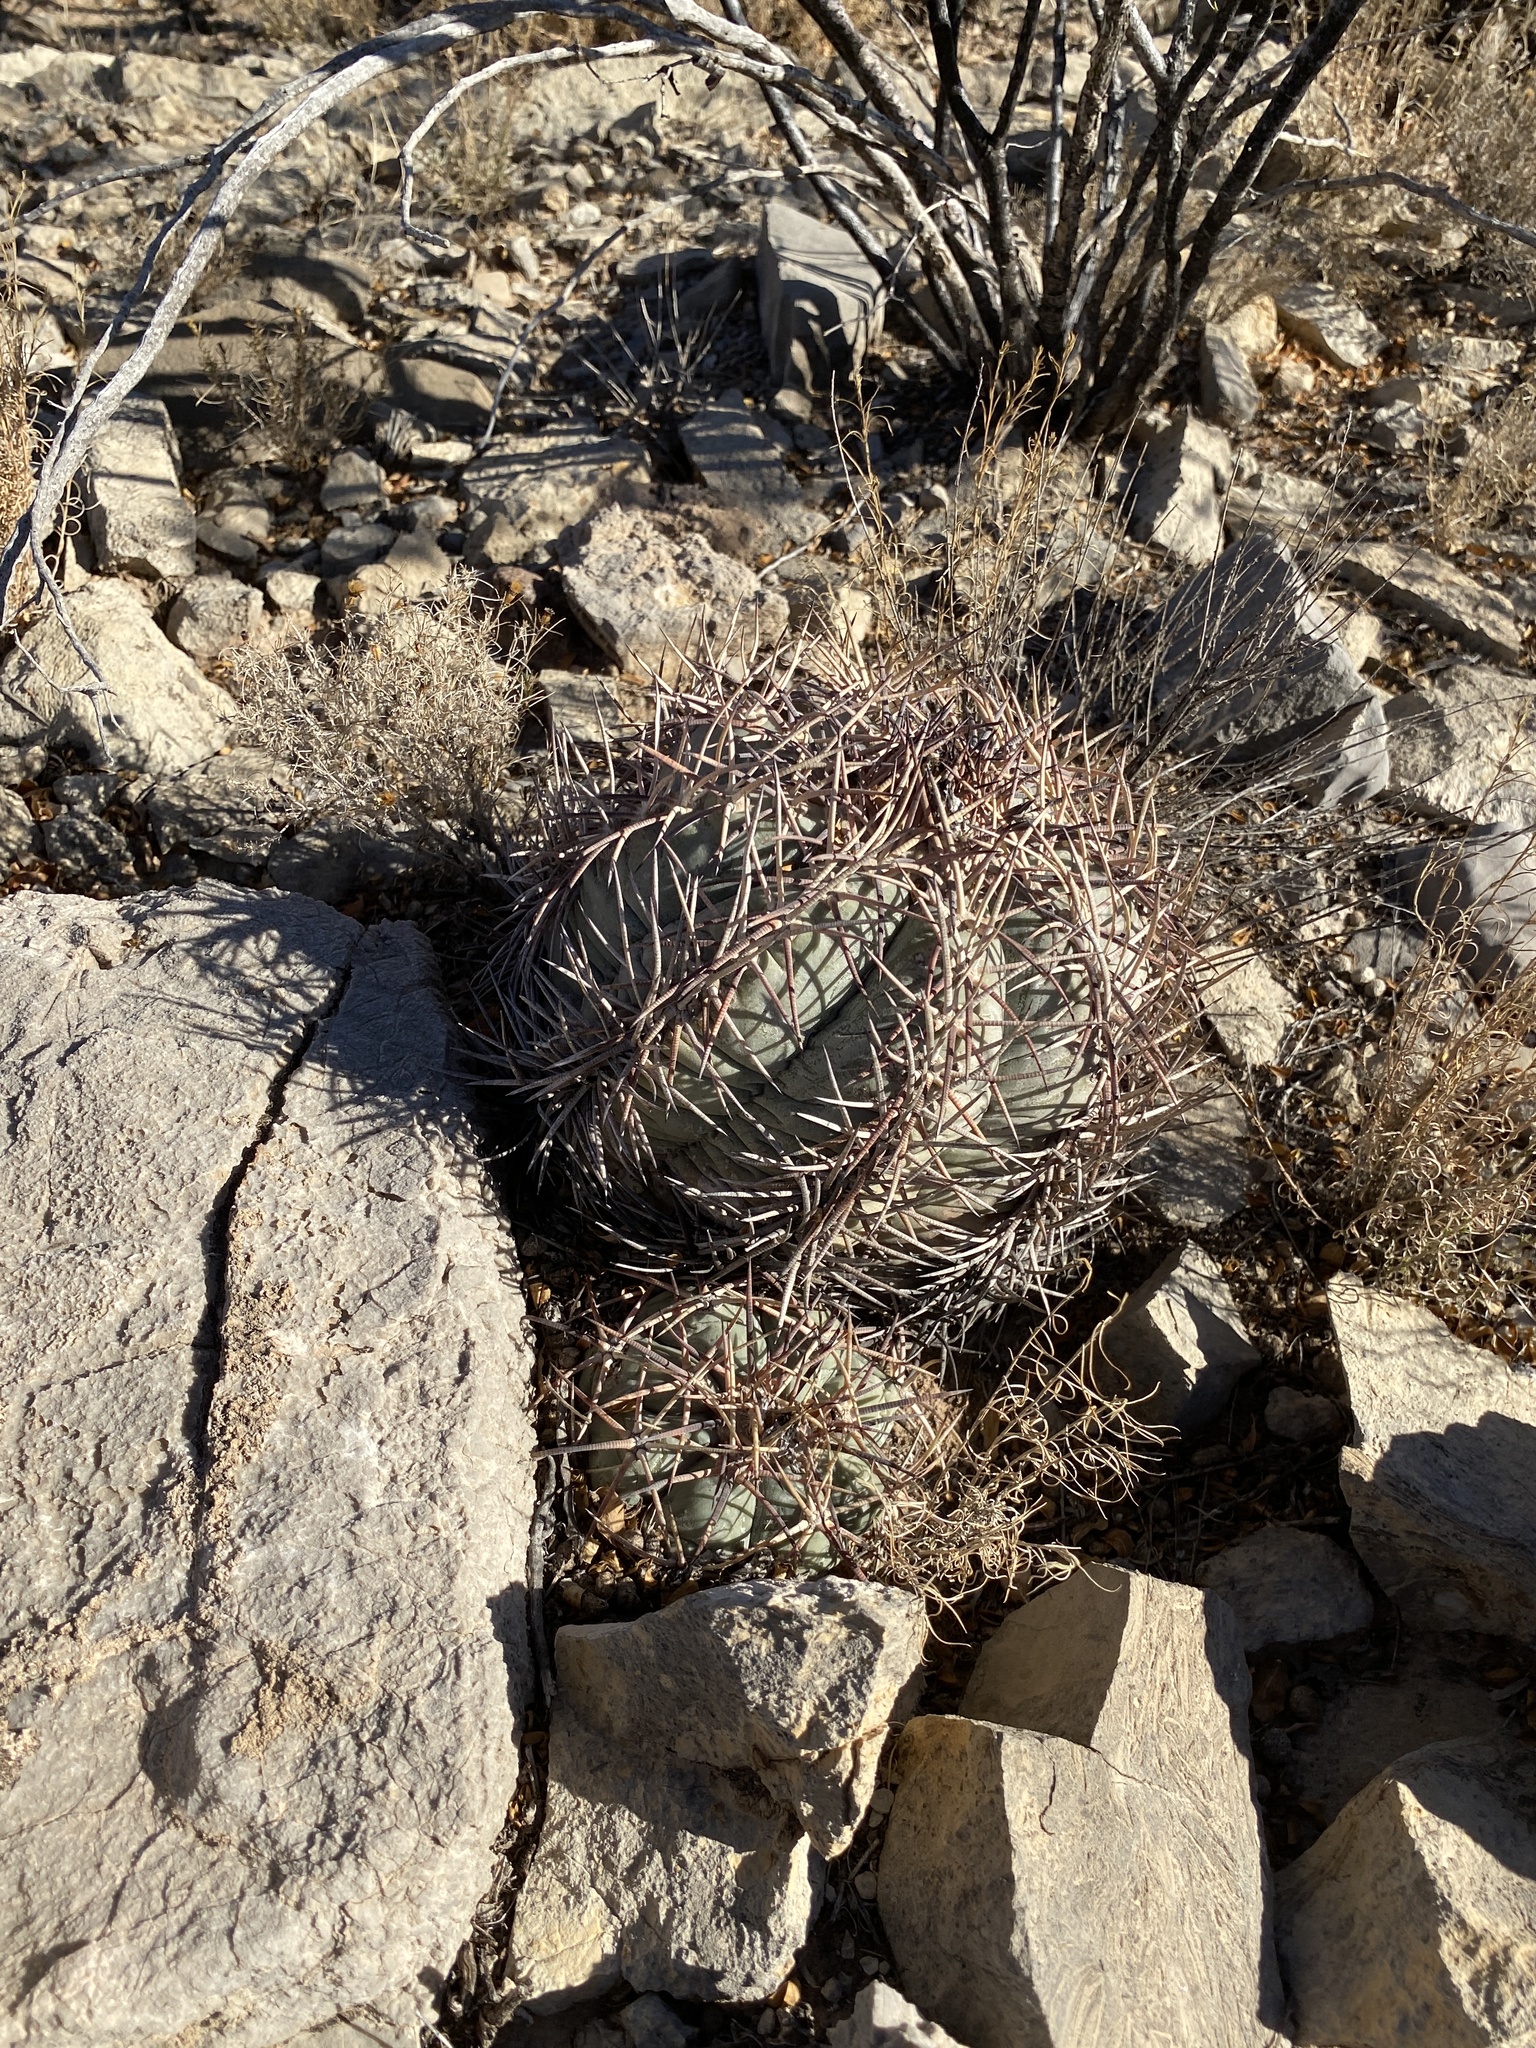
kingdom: Plantae
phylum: Tracheophyta
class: Magnoliopsida
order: Caryophyllales
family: Cactaceae
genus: Echinocactus
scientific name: Echinocactus horizonthalonius
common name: Devilshead
